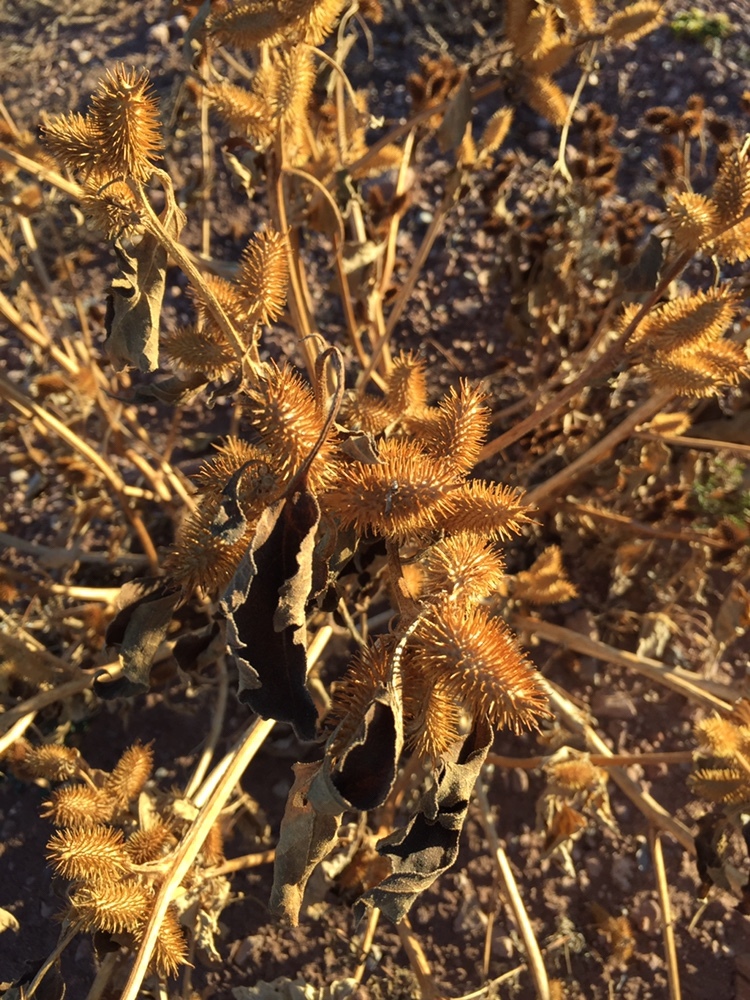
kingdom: Plantae
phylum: Tracheophyta
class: Magnoliopsida
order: Asterales
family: Asteraceae
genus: Xanthium
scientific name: Xanthium strumarium
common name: Rough cocklebur
